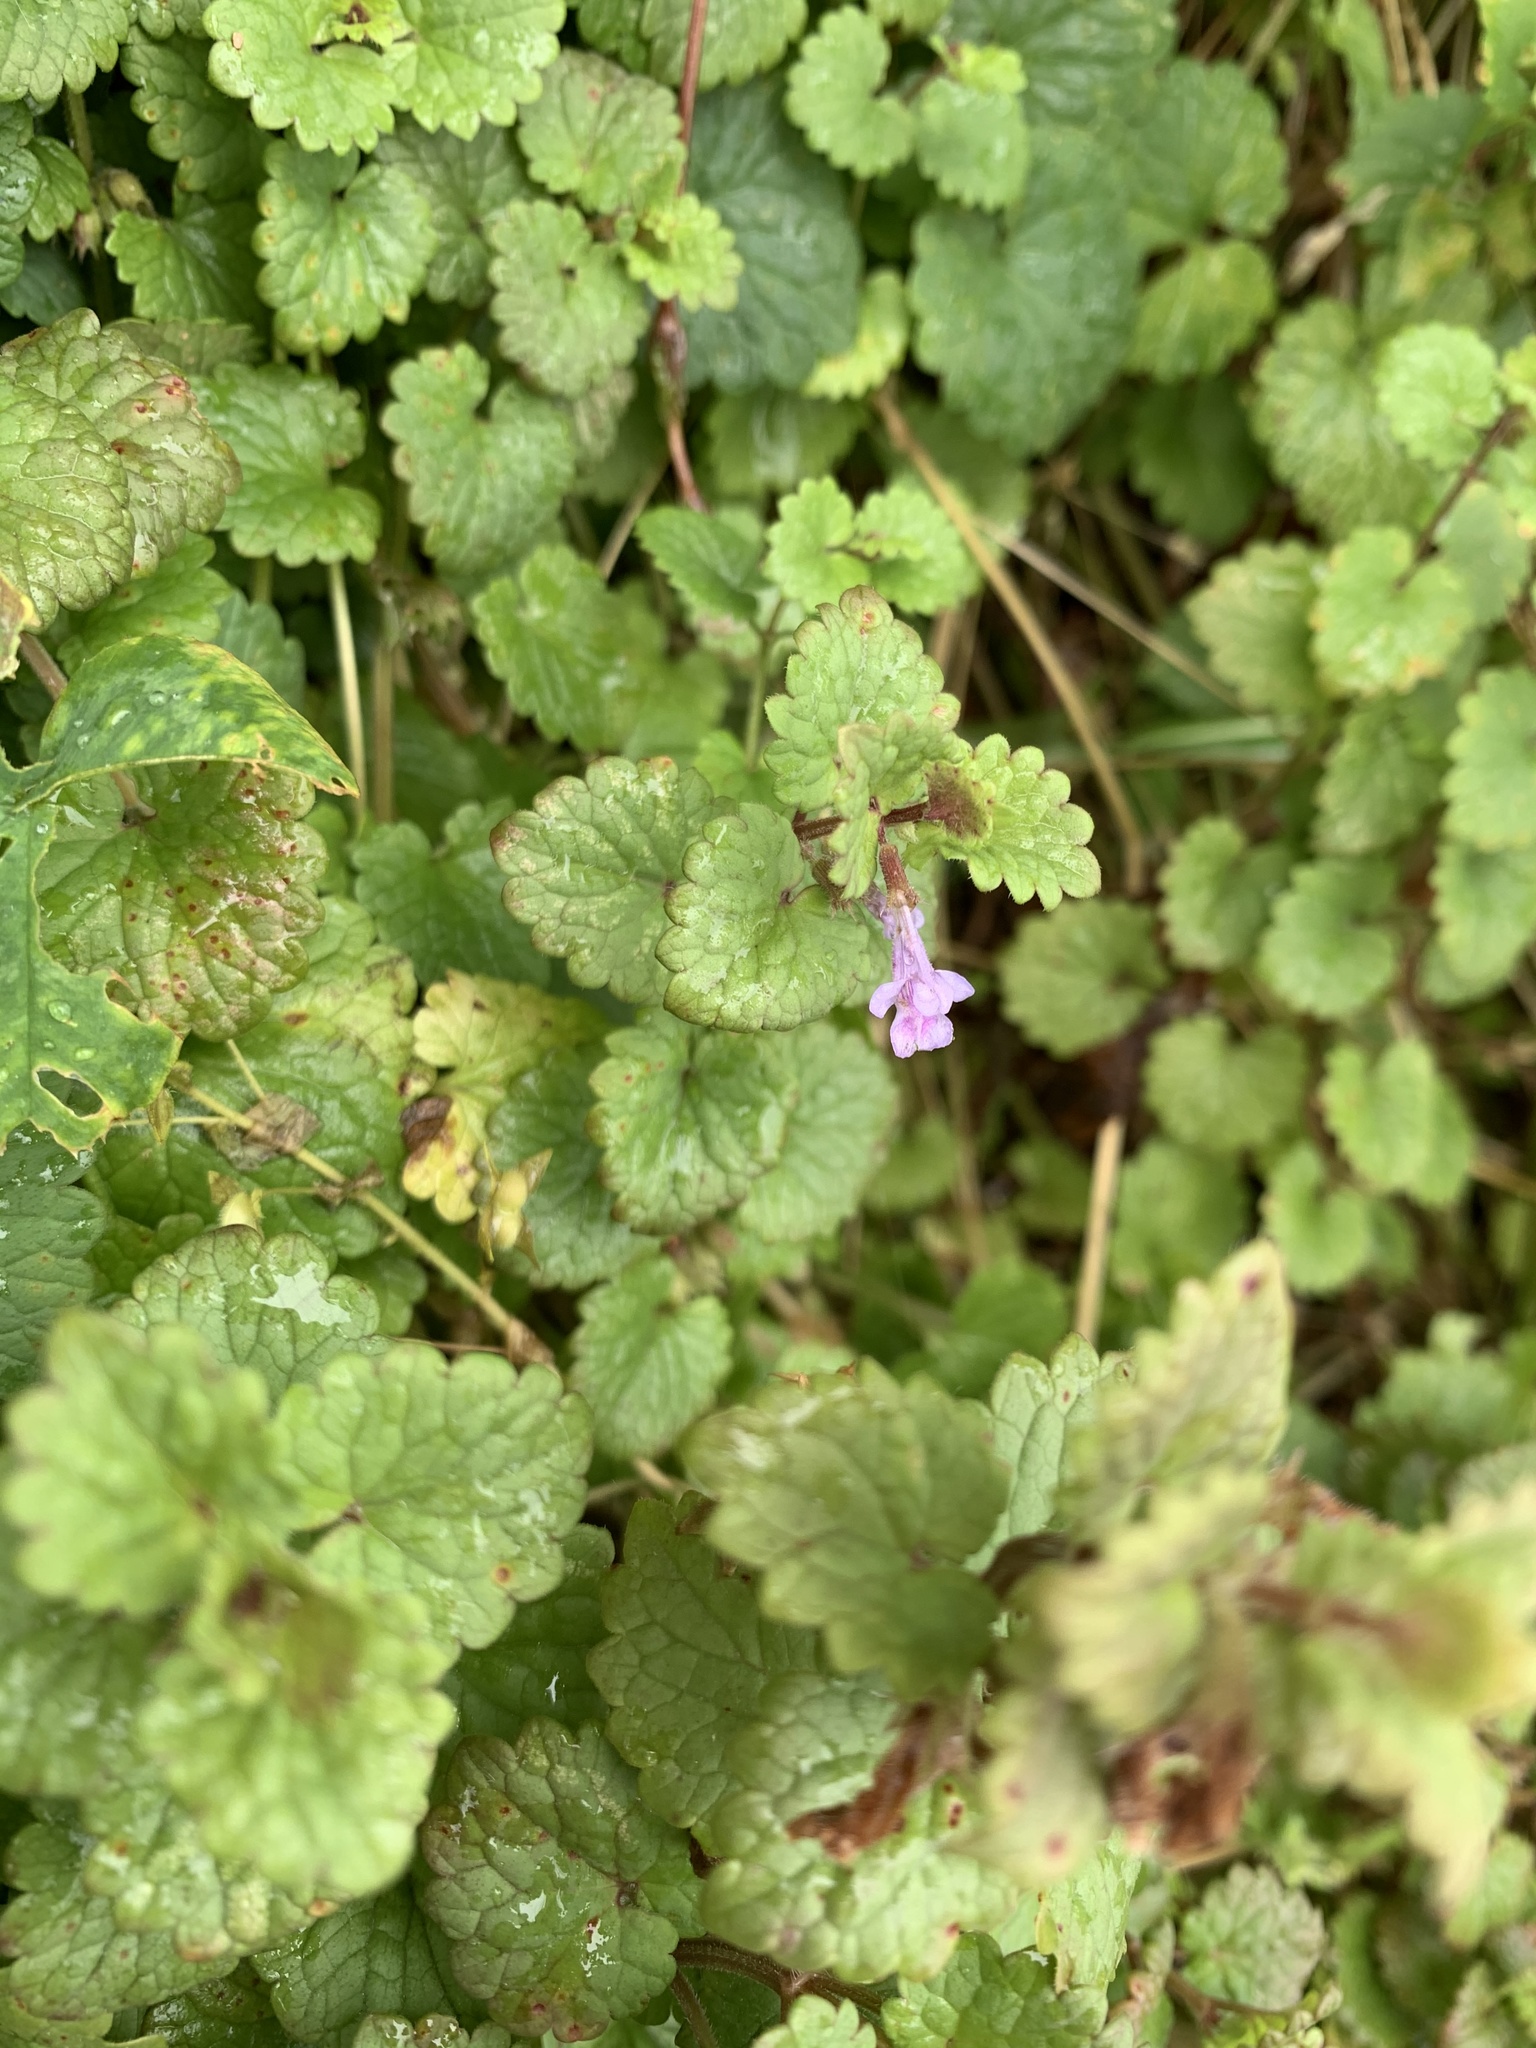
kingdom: Plantae
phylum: Tracheophyta
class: Magnoliopsida
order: Lamiales
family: Lamiaceae
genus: Glechoma
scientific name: Glechoma hederacea
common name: Ground ivy
